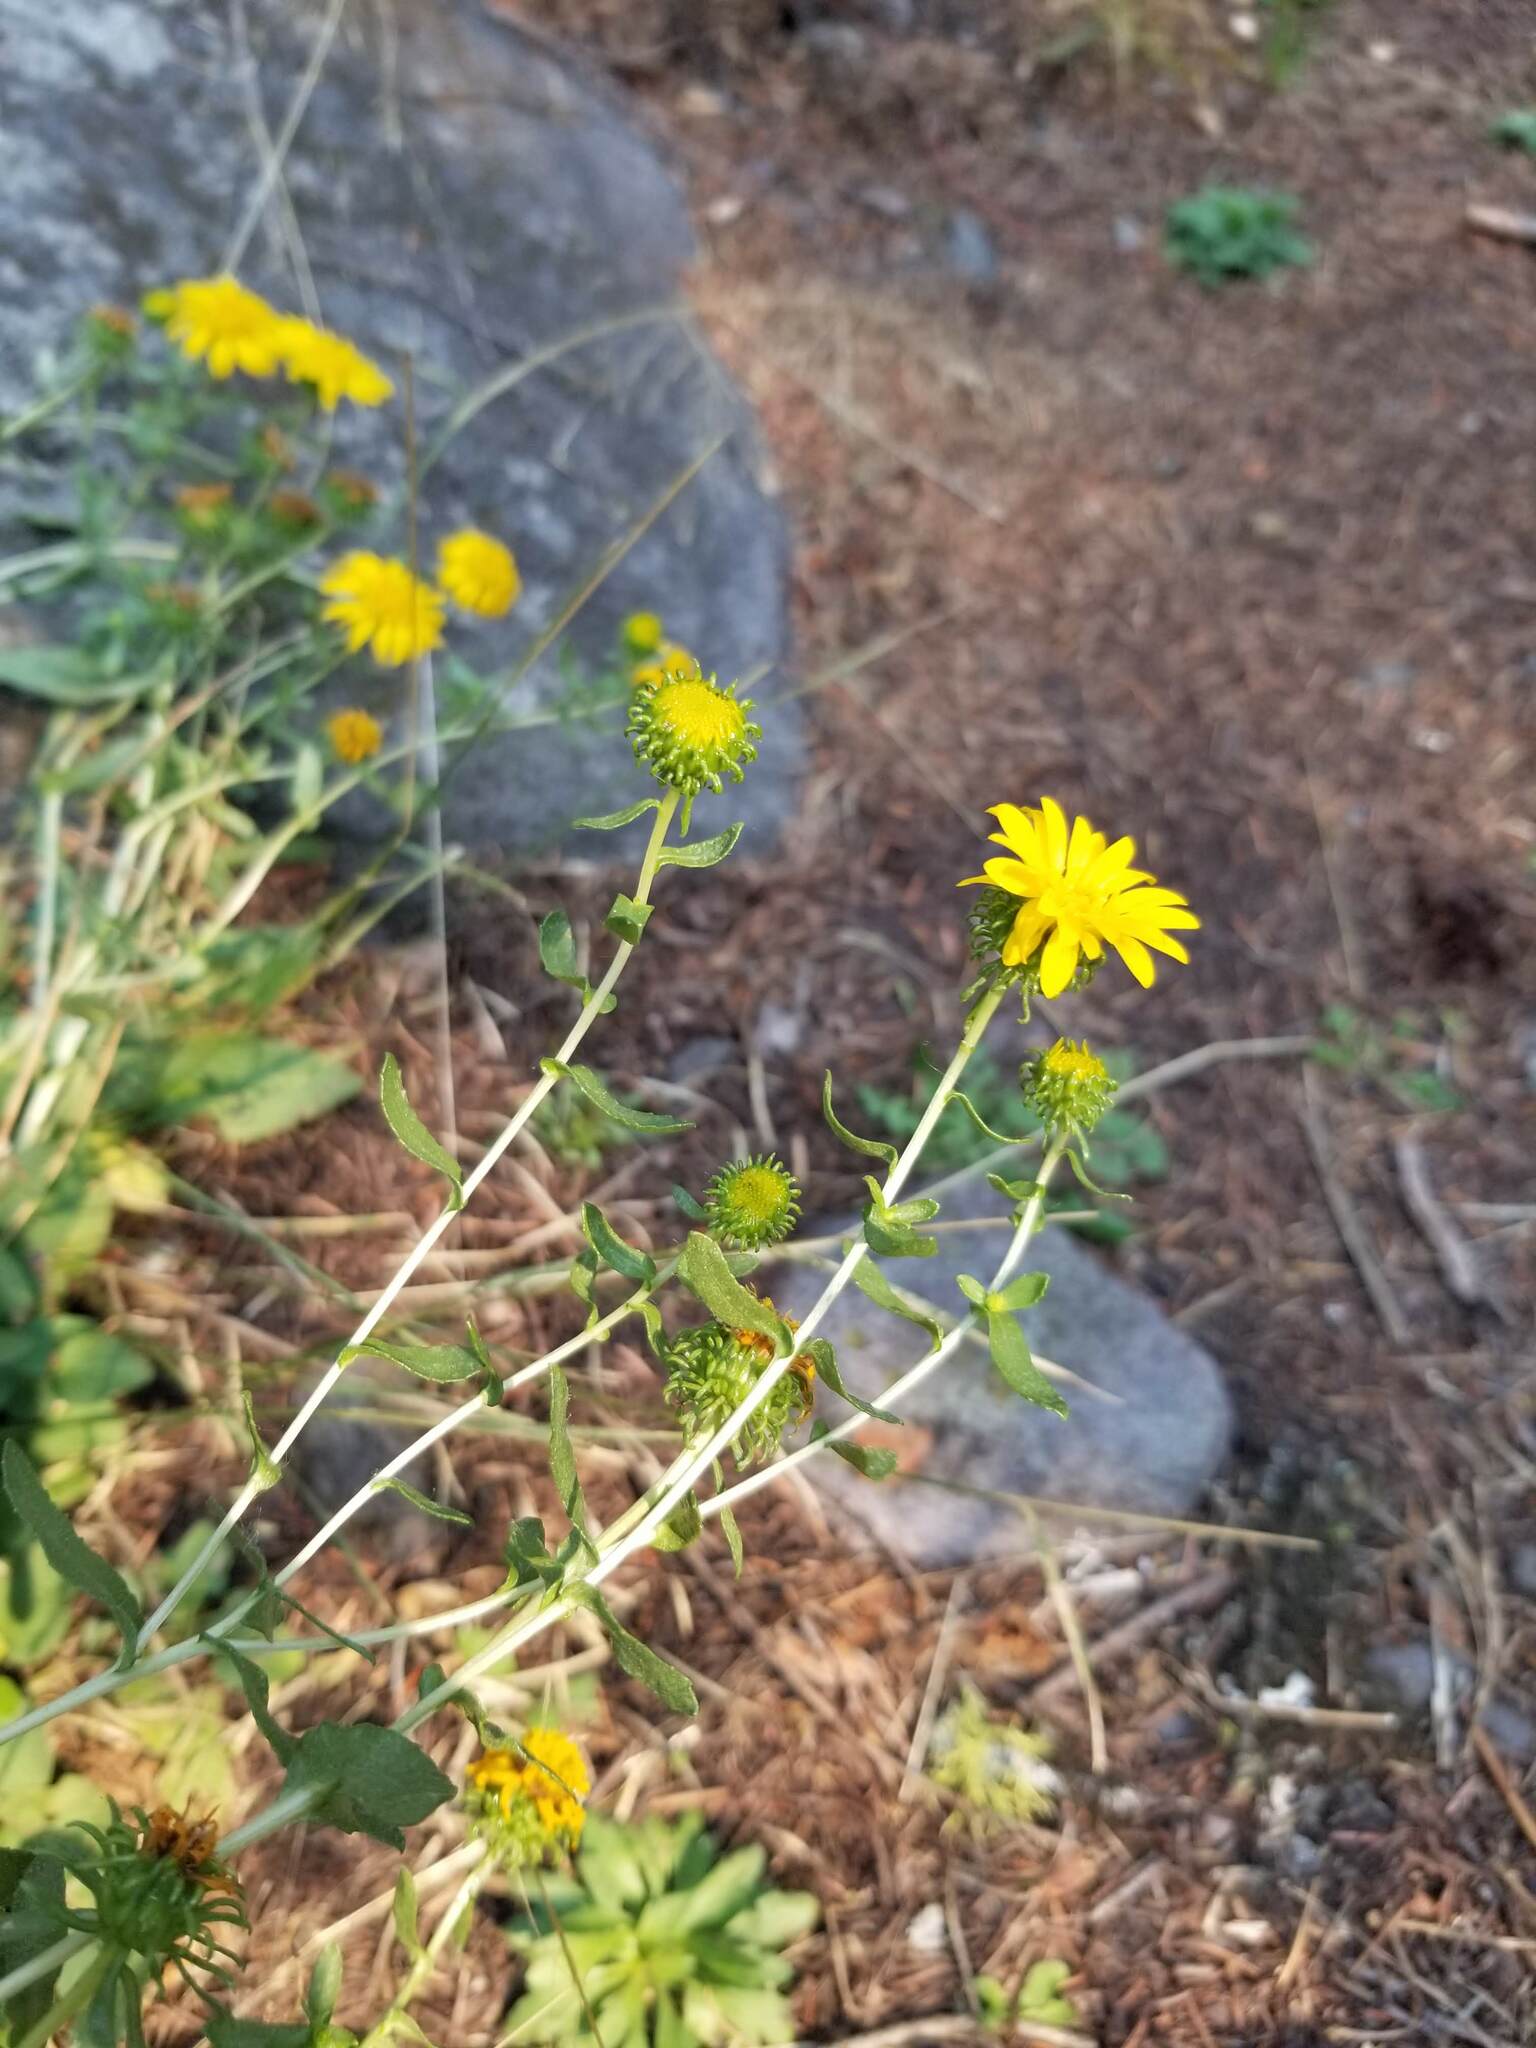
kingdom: Plantae
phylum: Tracheophyta
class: Magnoliopsida
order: Asterales
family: Asteraceae
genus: Grindelia
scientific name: Grindelia squarrosa
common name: Curly-cup gumweed
